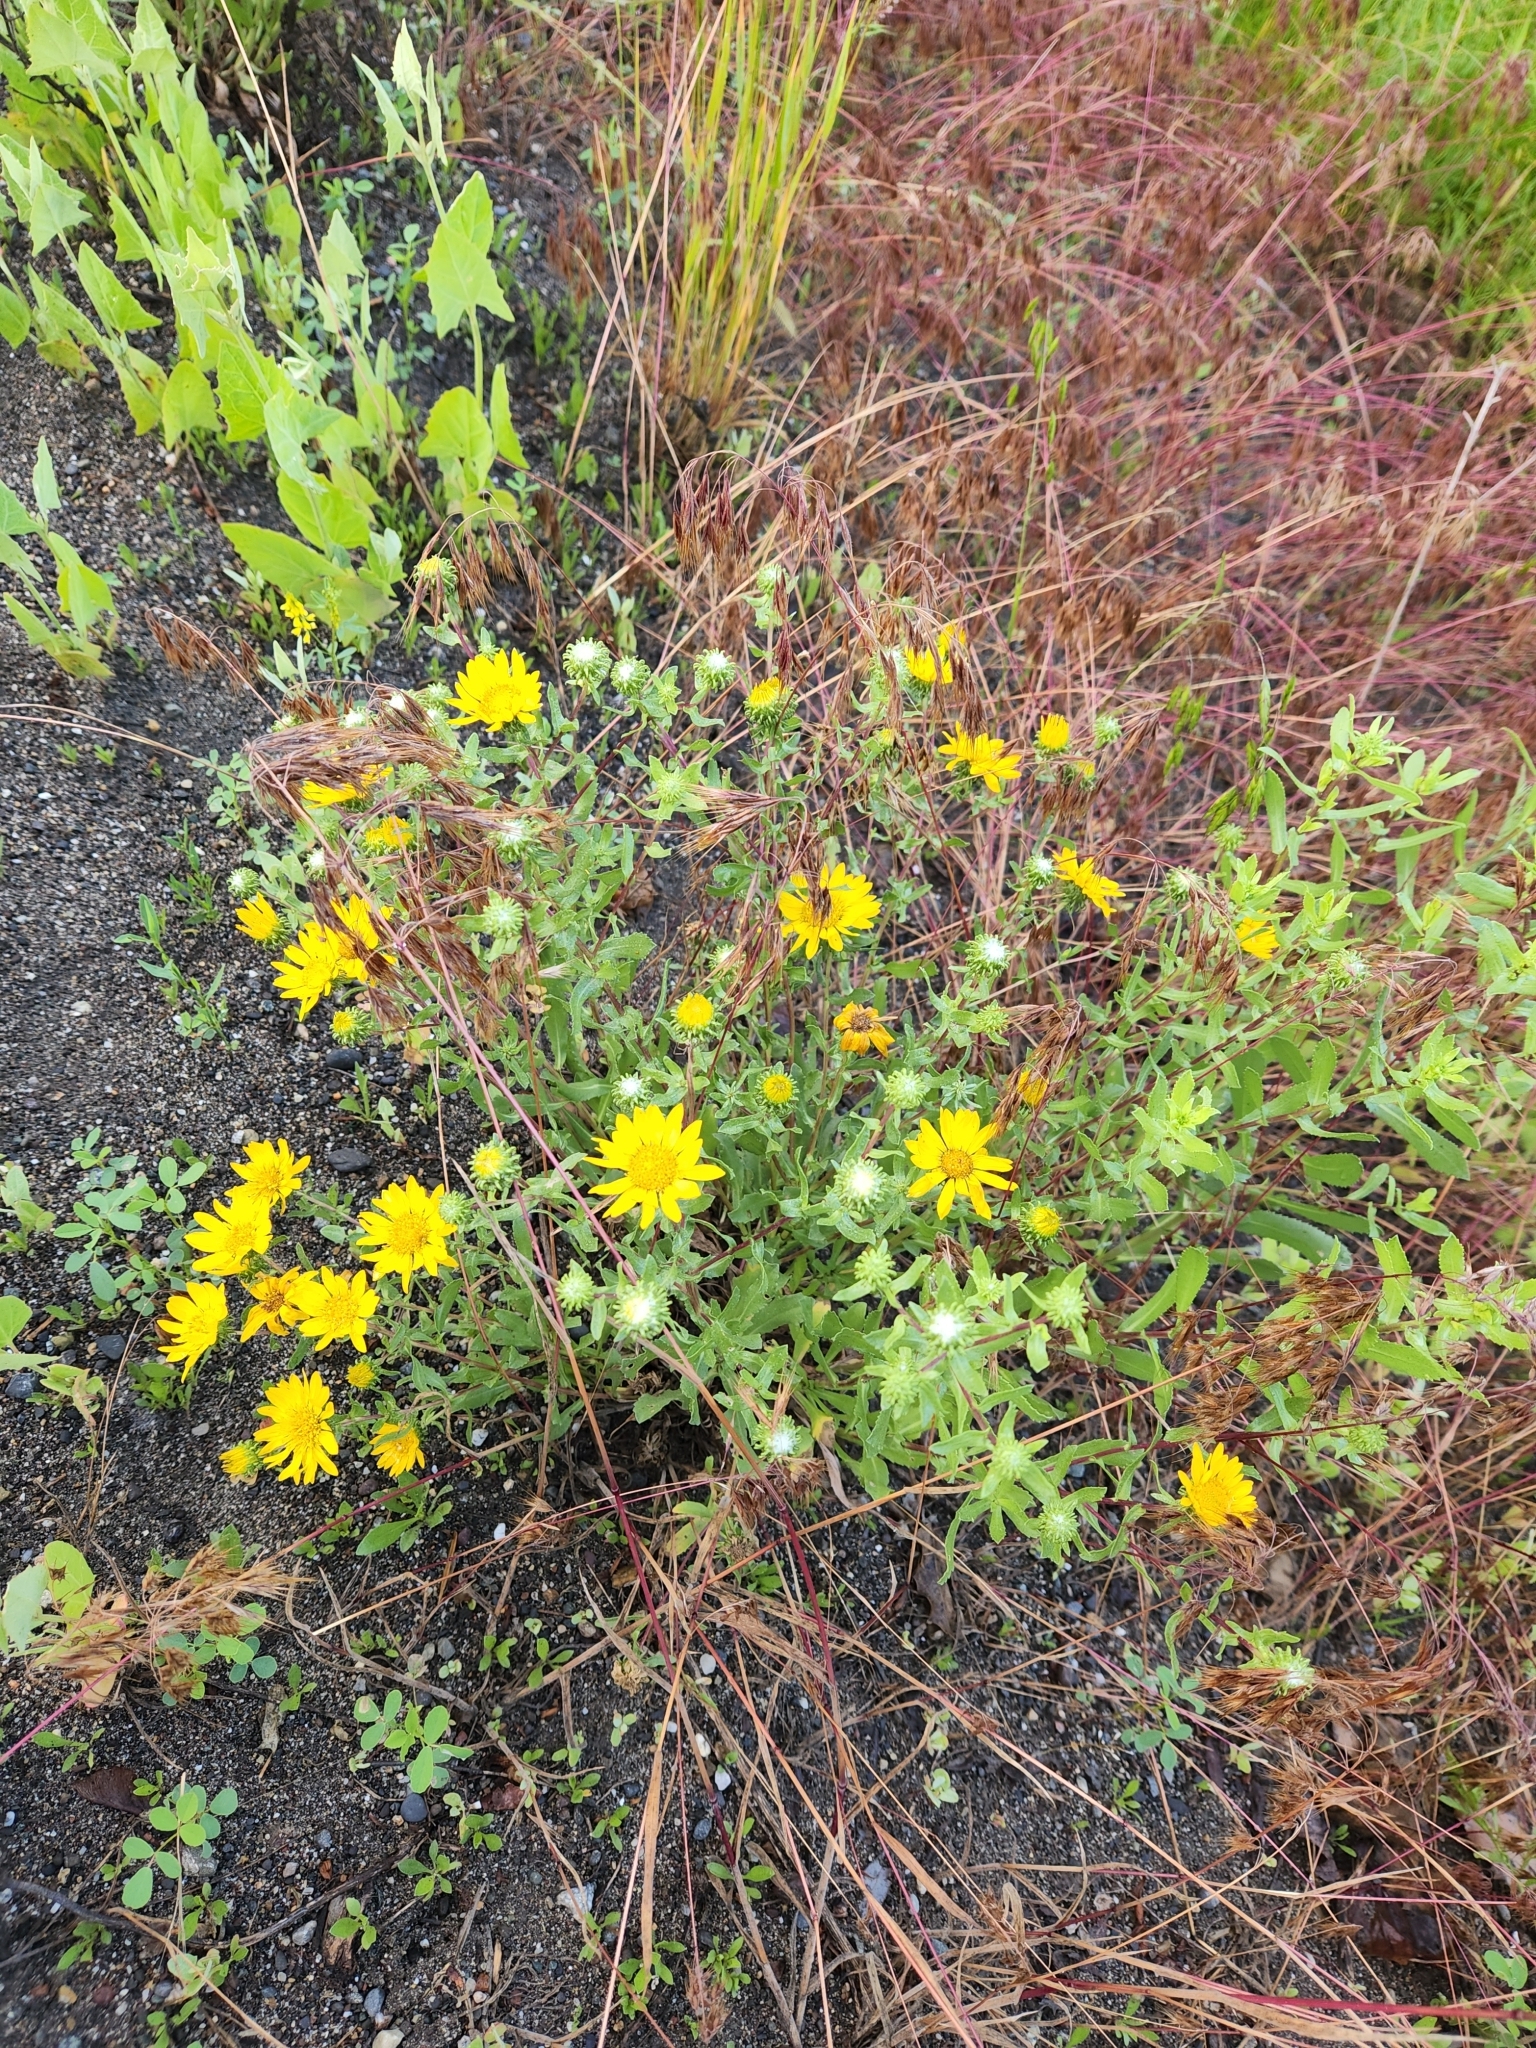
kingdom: Plantae
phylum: Tracheophyta
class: Magnoliopsida
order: Asterales
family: Asteraceae
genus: Grindelia
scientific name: Grindelia squarrosa
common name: Curly-cup gumweed
